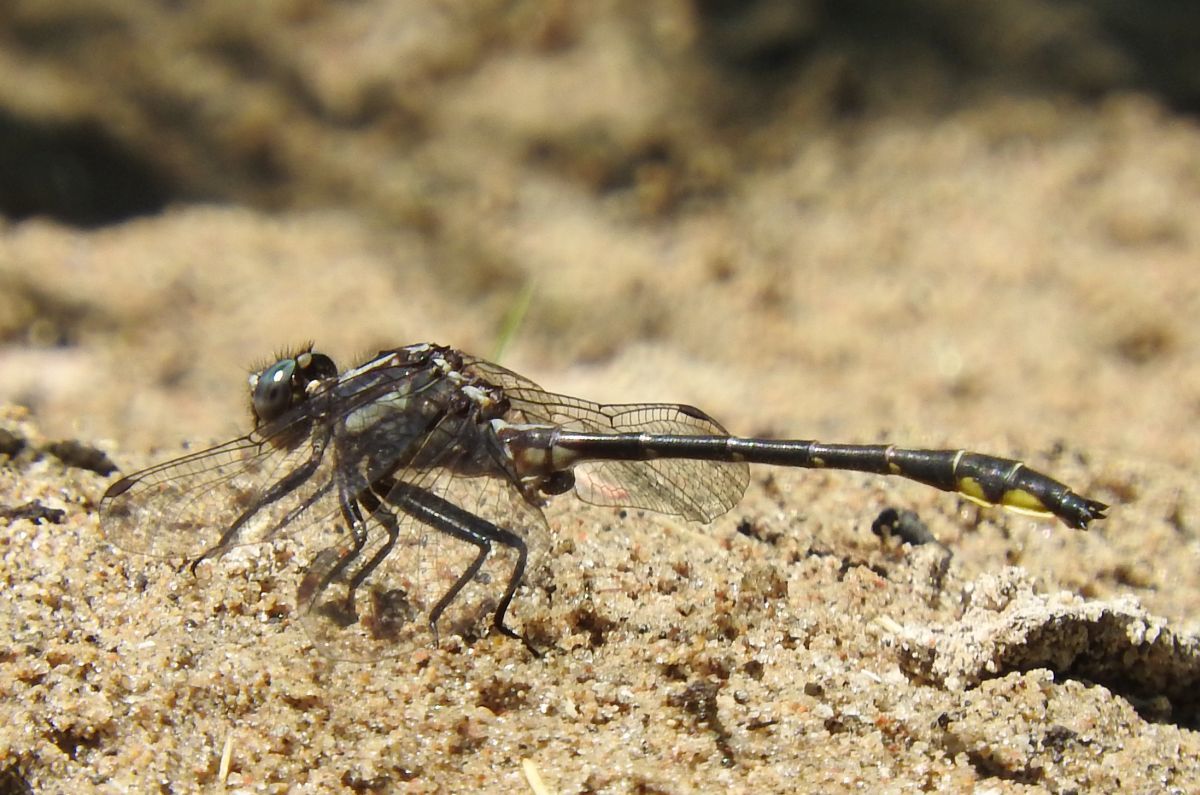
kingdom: Animalia
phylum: Arthropoda
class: Insecta
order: Odonata
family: Gomphidae
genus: Phanogomphus
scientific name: Phanogomphus quadricolor
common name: Rapids clubtail
